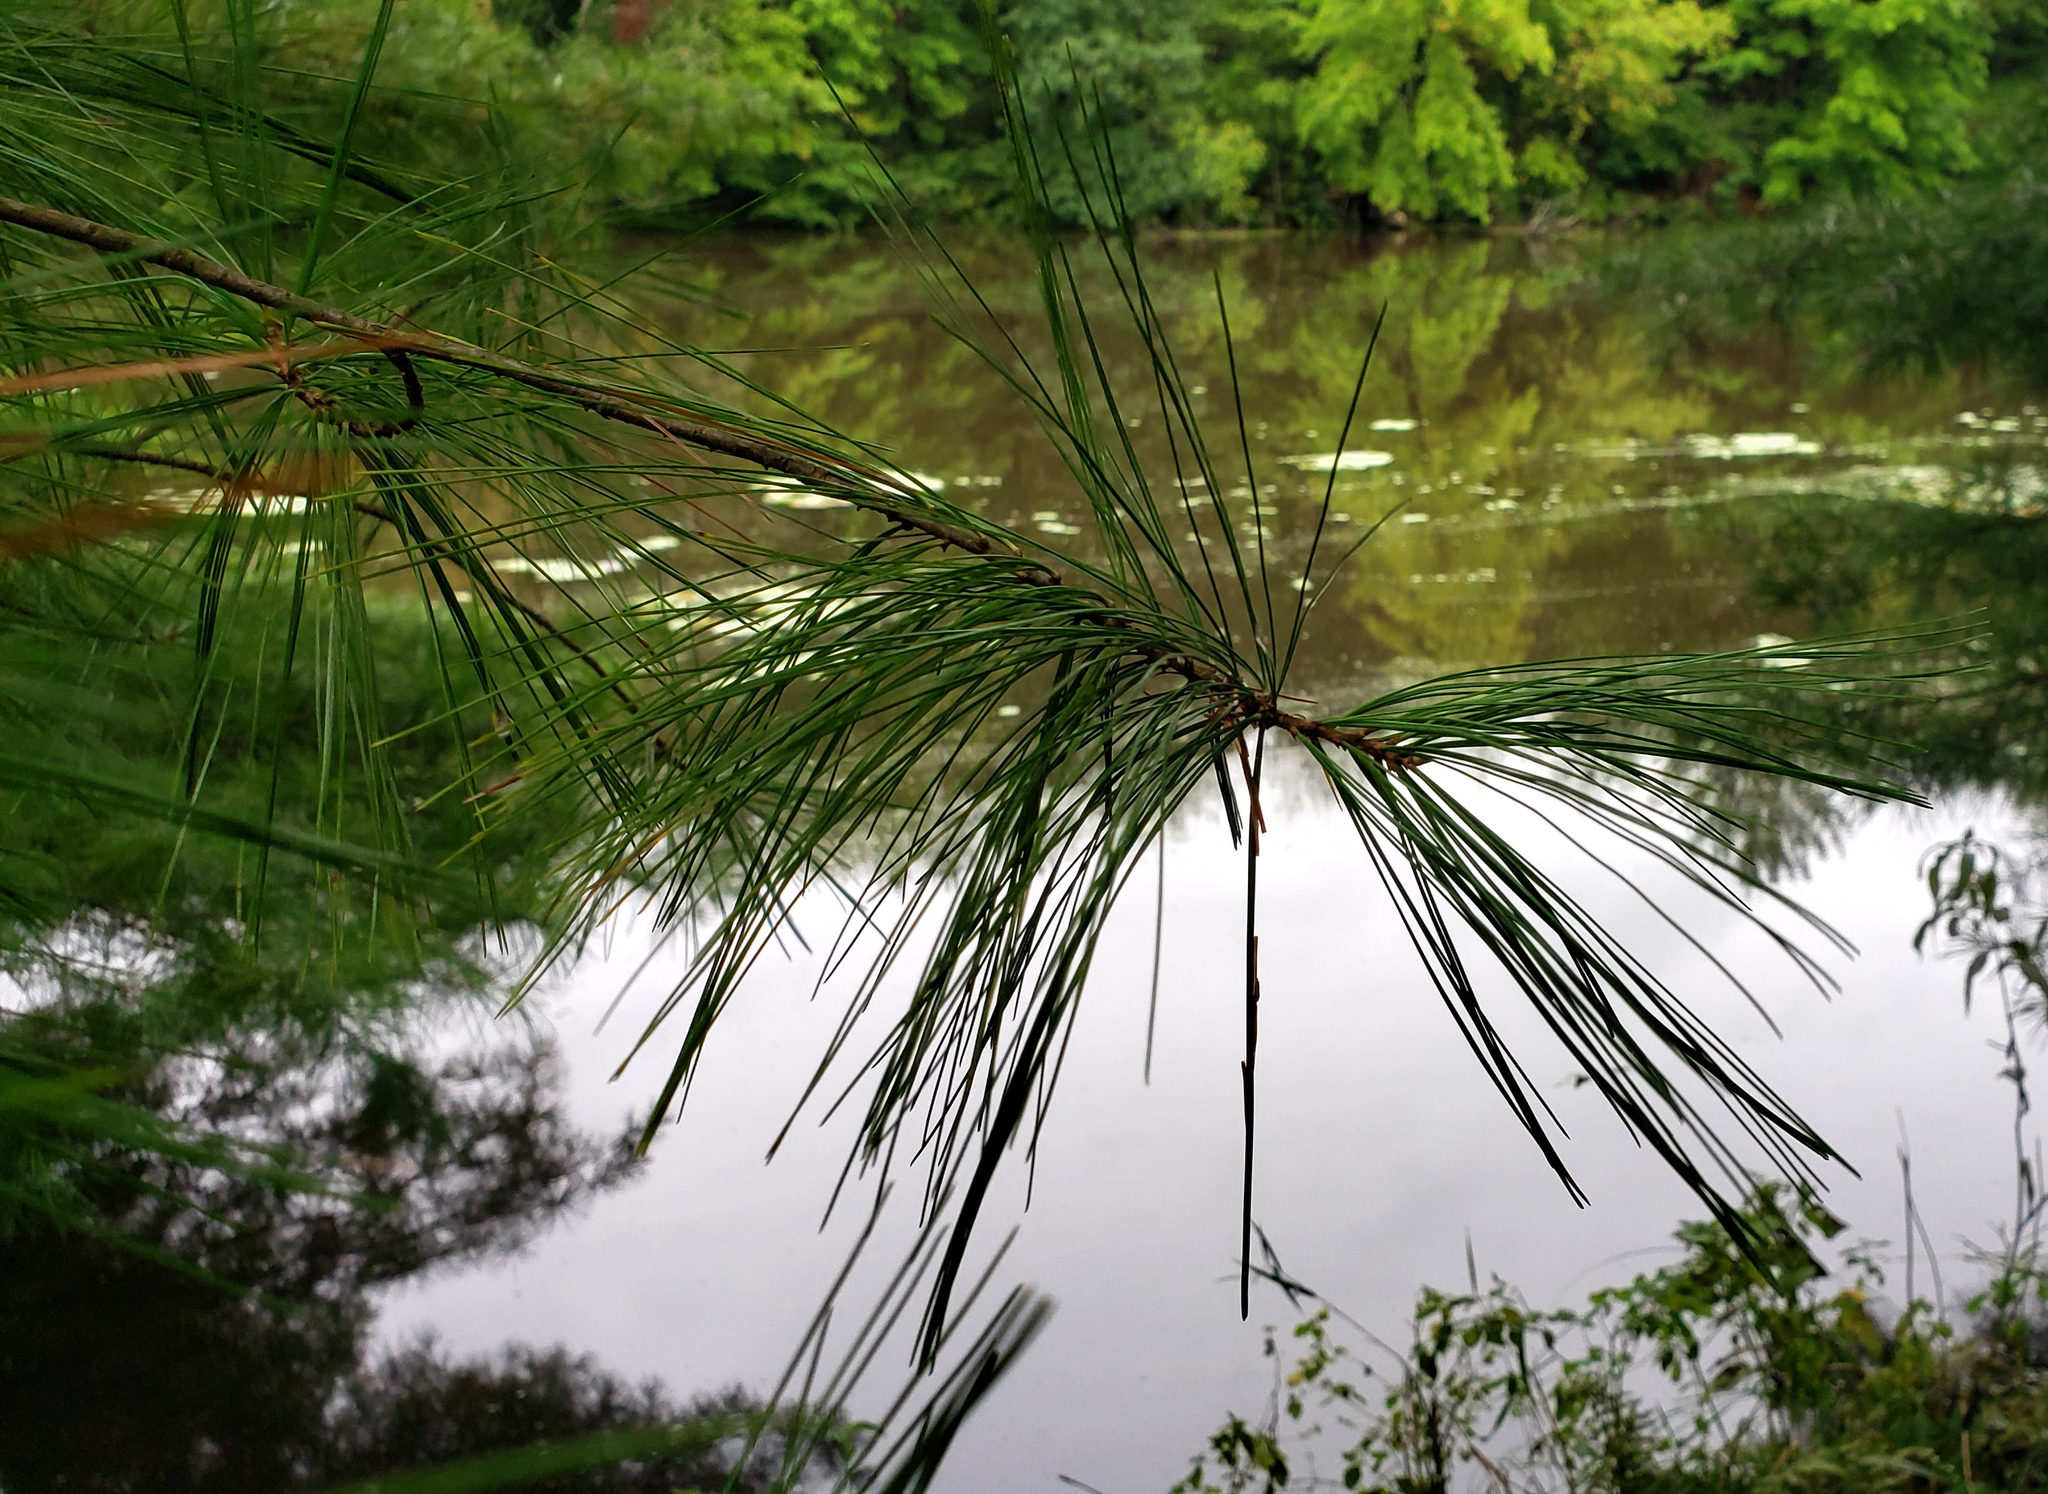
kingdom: Plantae
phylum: Tracheophyta
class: Pinopsida
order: Pinales
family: Pinaceae
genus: Pinus
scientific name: Pinus strobus
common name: Weymouth pine
